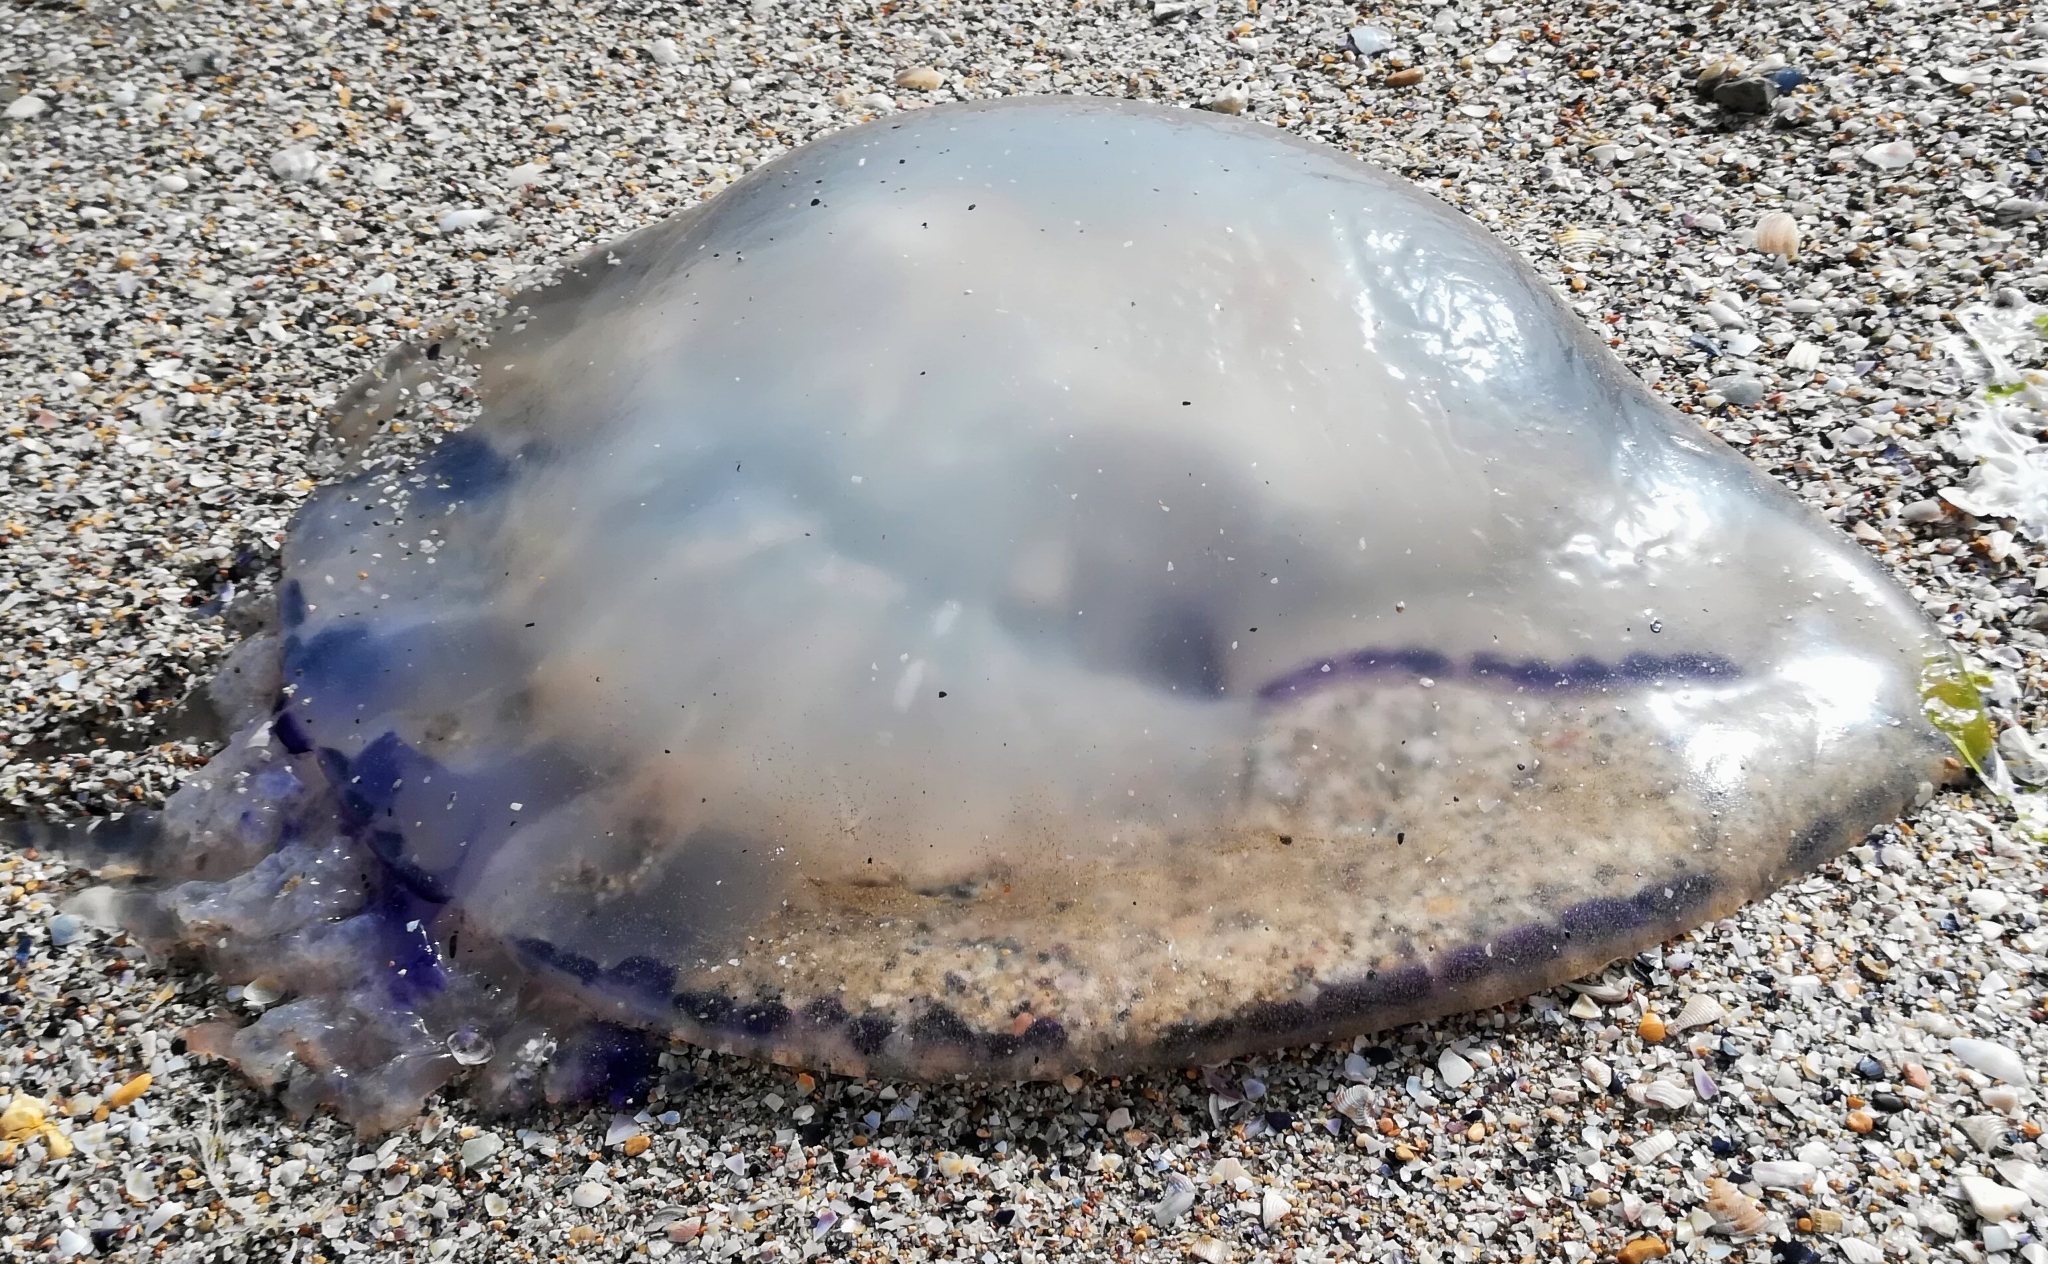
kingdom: Animalia
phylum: Cnidaria
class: Scyphozoa
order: Rhizostomeae
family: Rhizostomatidae
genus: Rhizostoma
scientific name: Rhizostoma pulmo
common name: Barrel jellyfish
